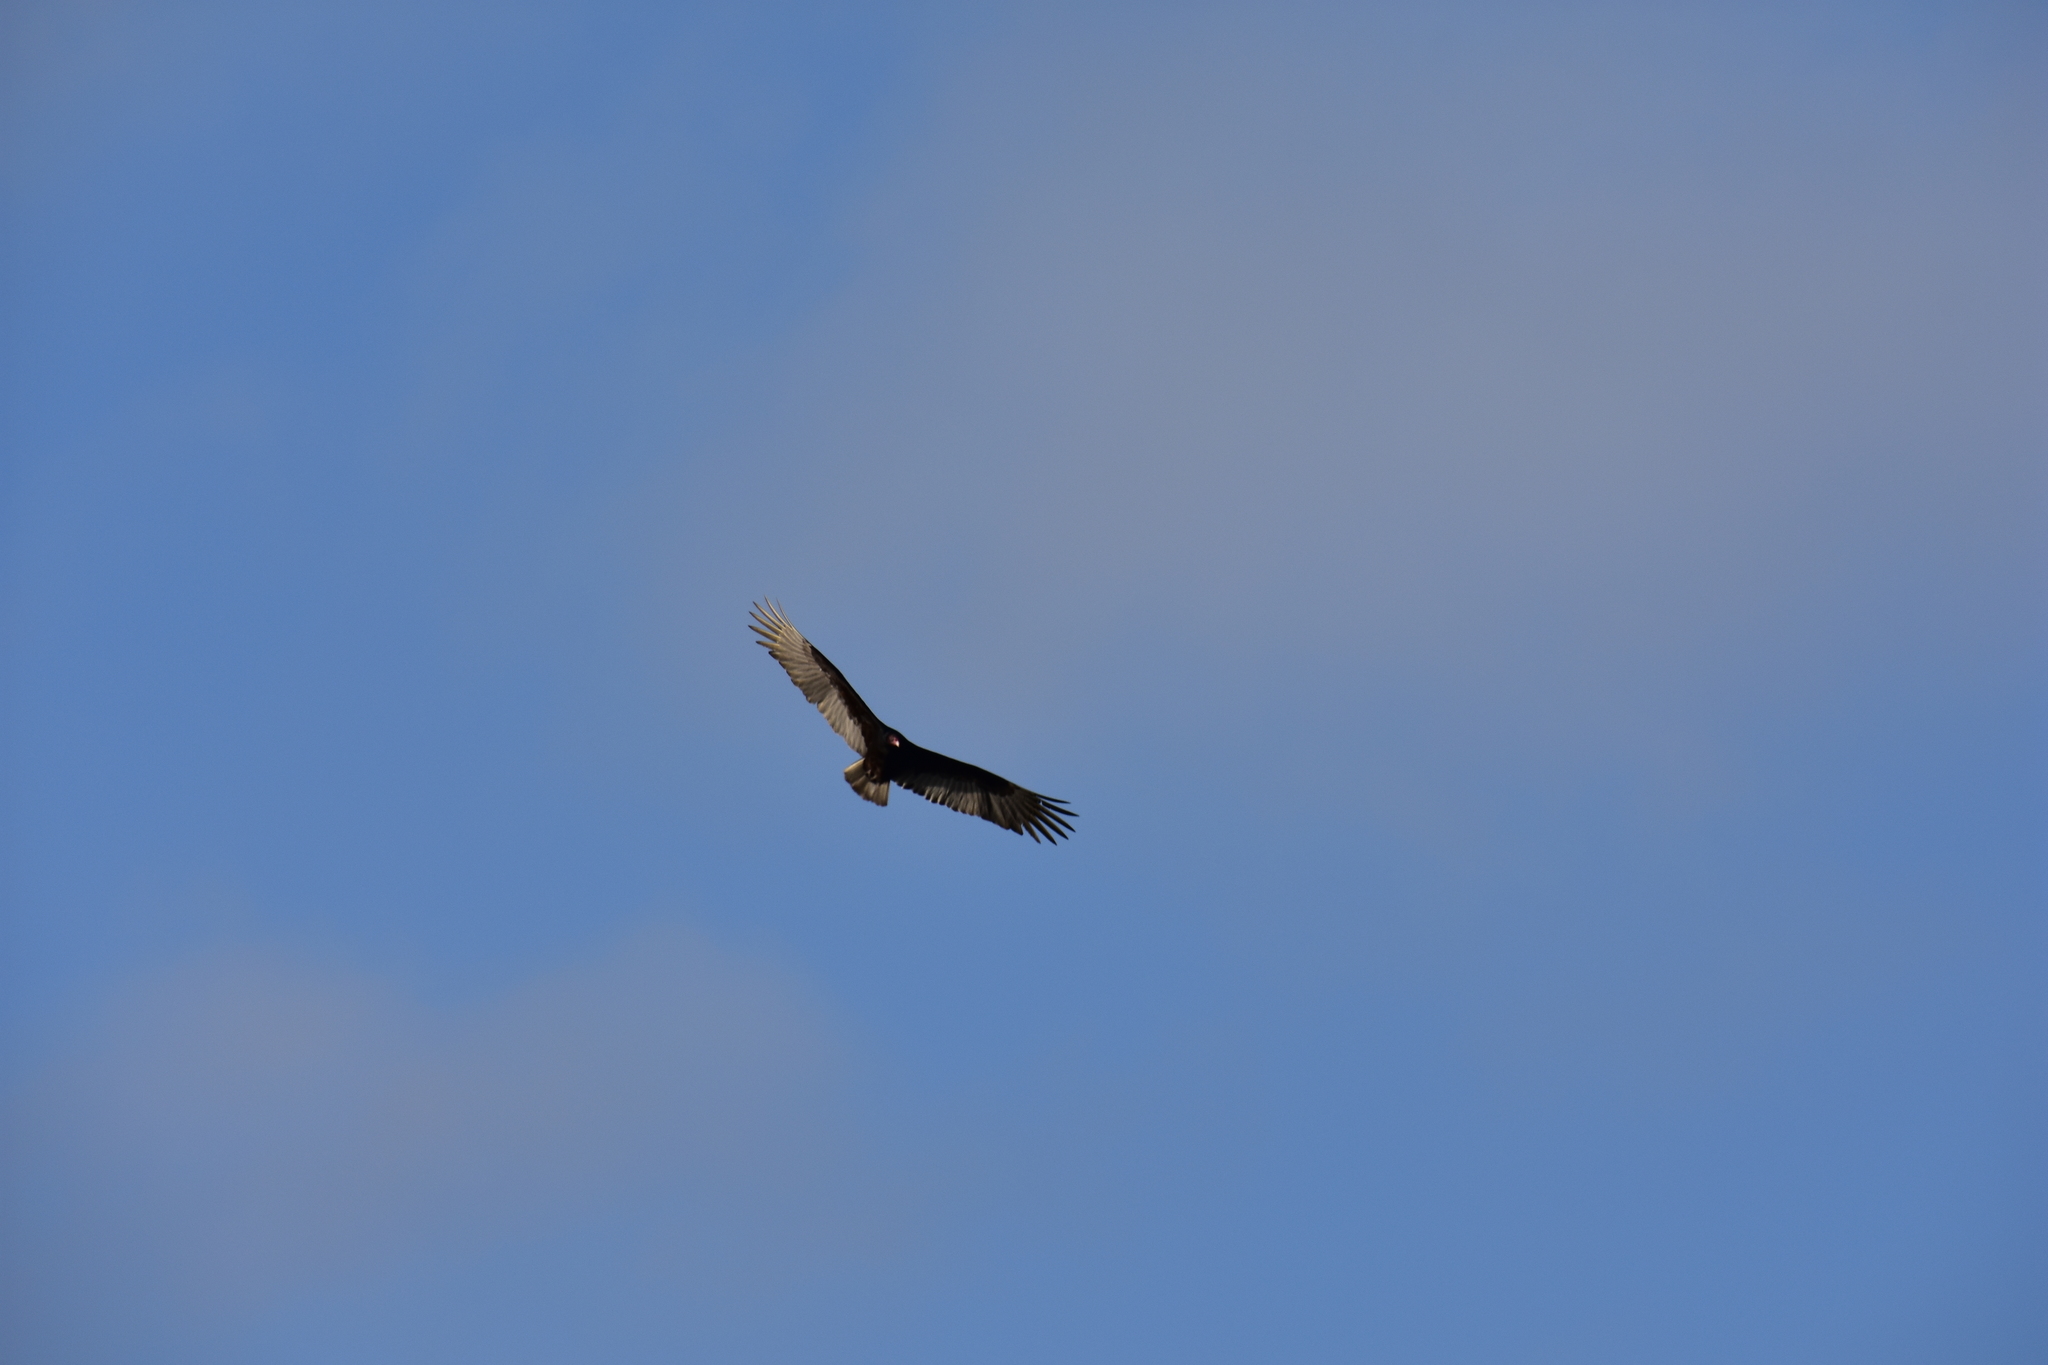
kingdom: Animalia
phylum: Chordata
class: Aves
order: Accipitriformes
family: Cathartidae
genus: Cathartes
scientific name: Cathartes aura
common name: Turkey vulture
